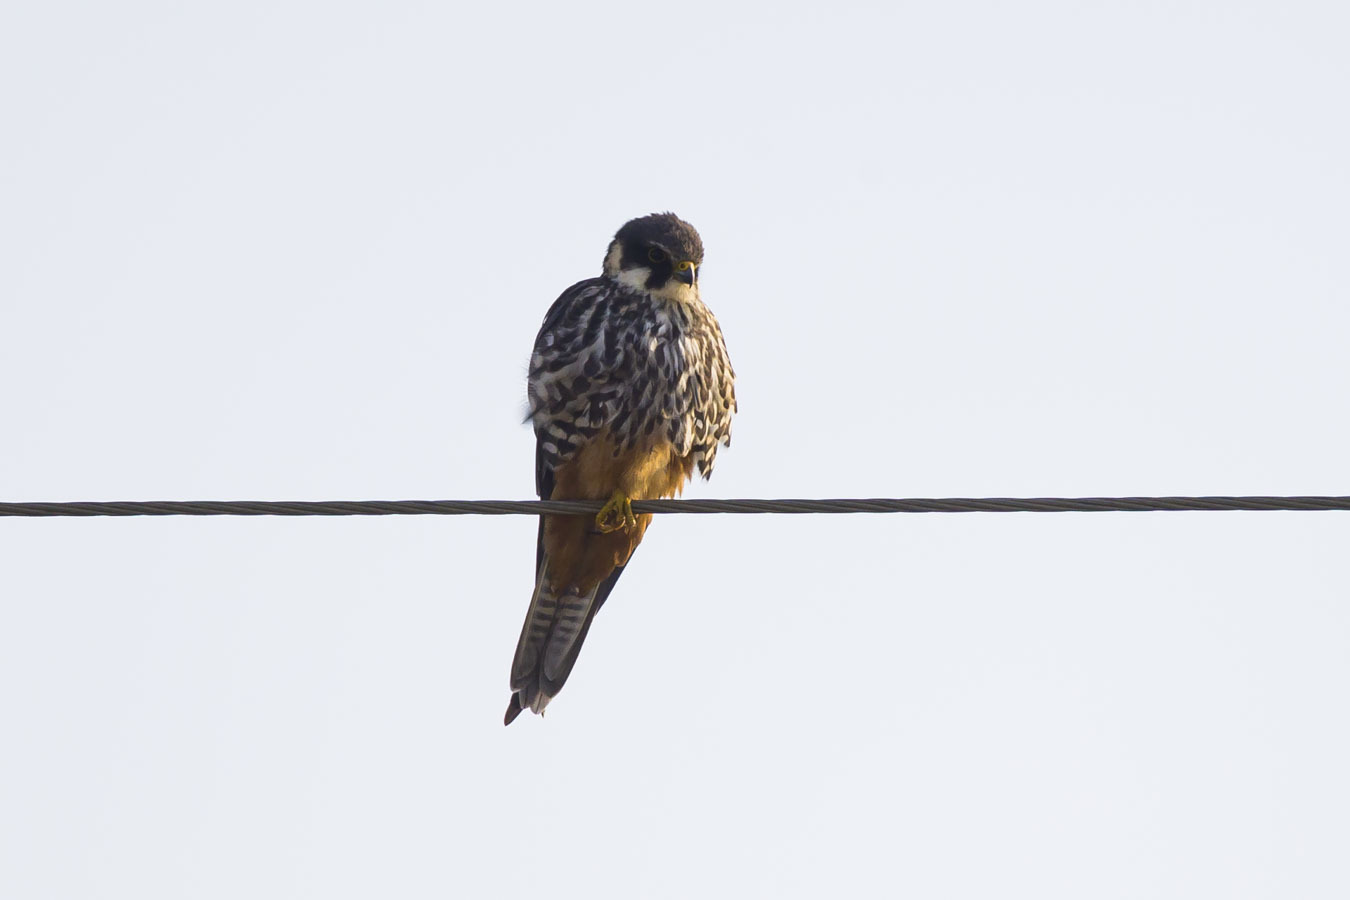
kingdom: Animalia
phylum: Chordata
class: Aves
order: Falconiformes
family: Falconidae
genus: Falco
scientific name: Falco subbuteo
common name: Eurasian hobby
